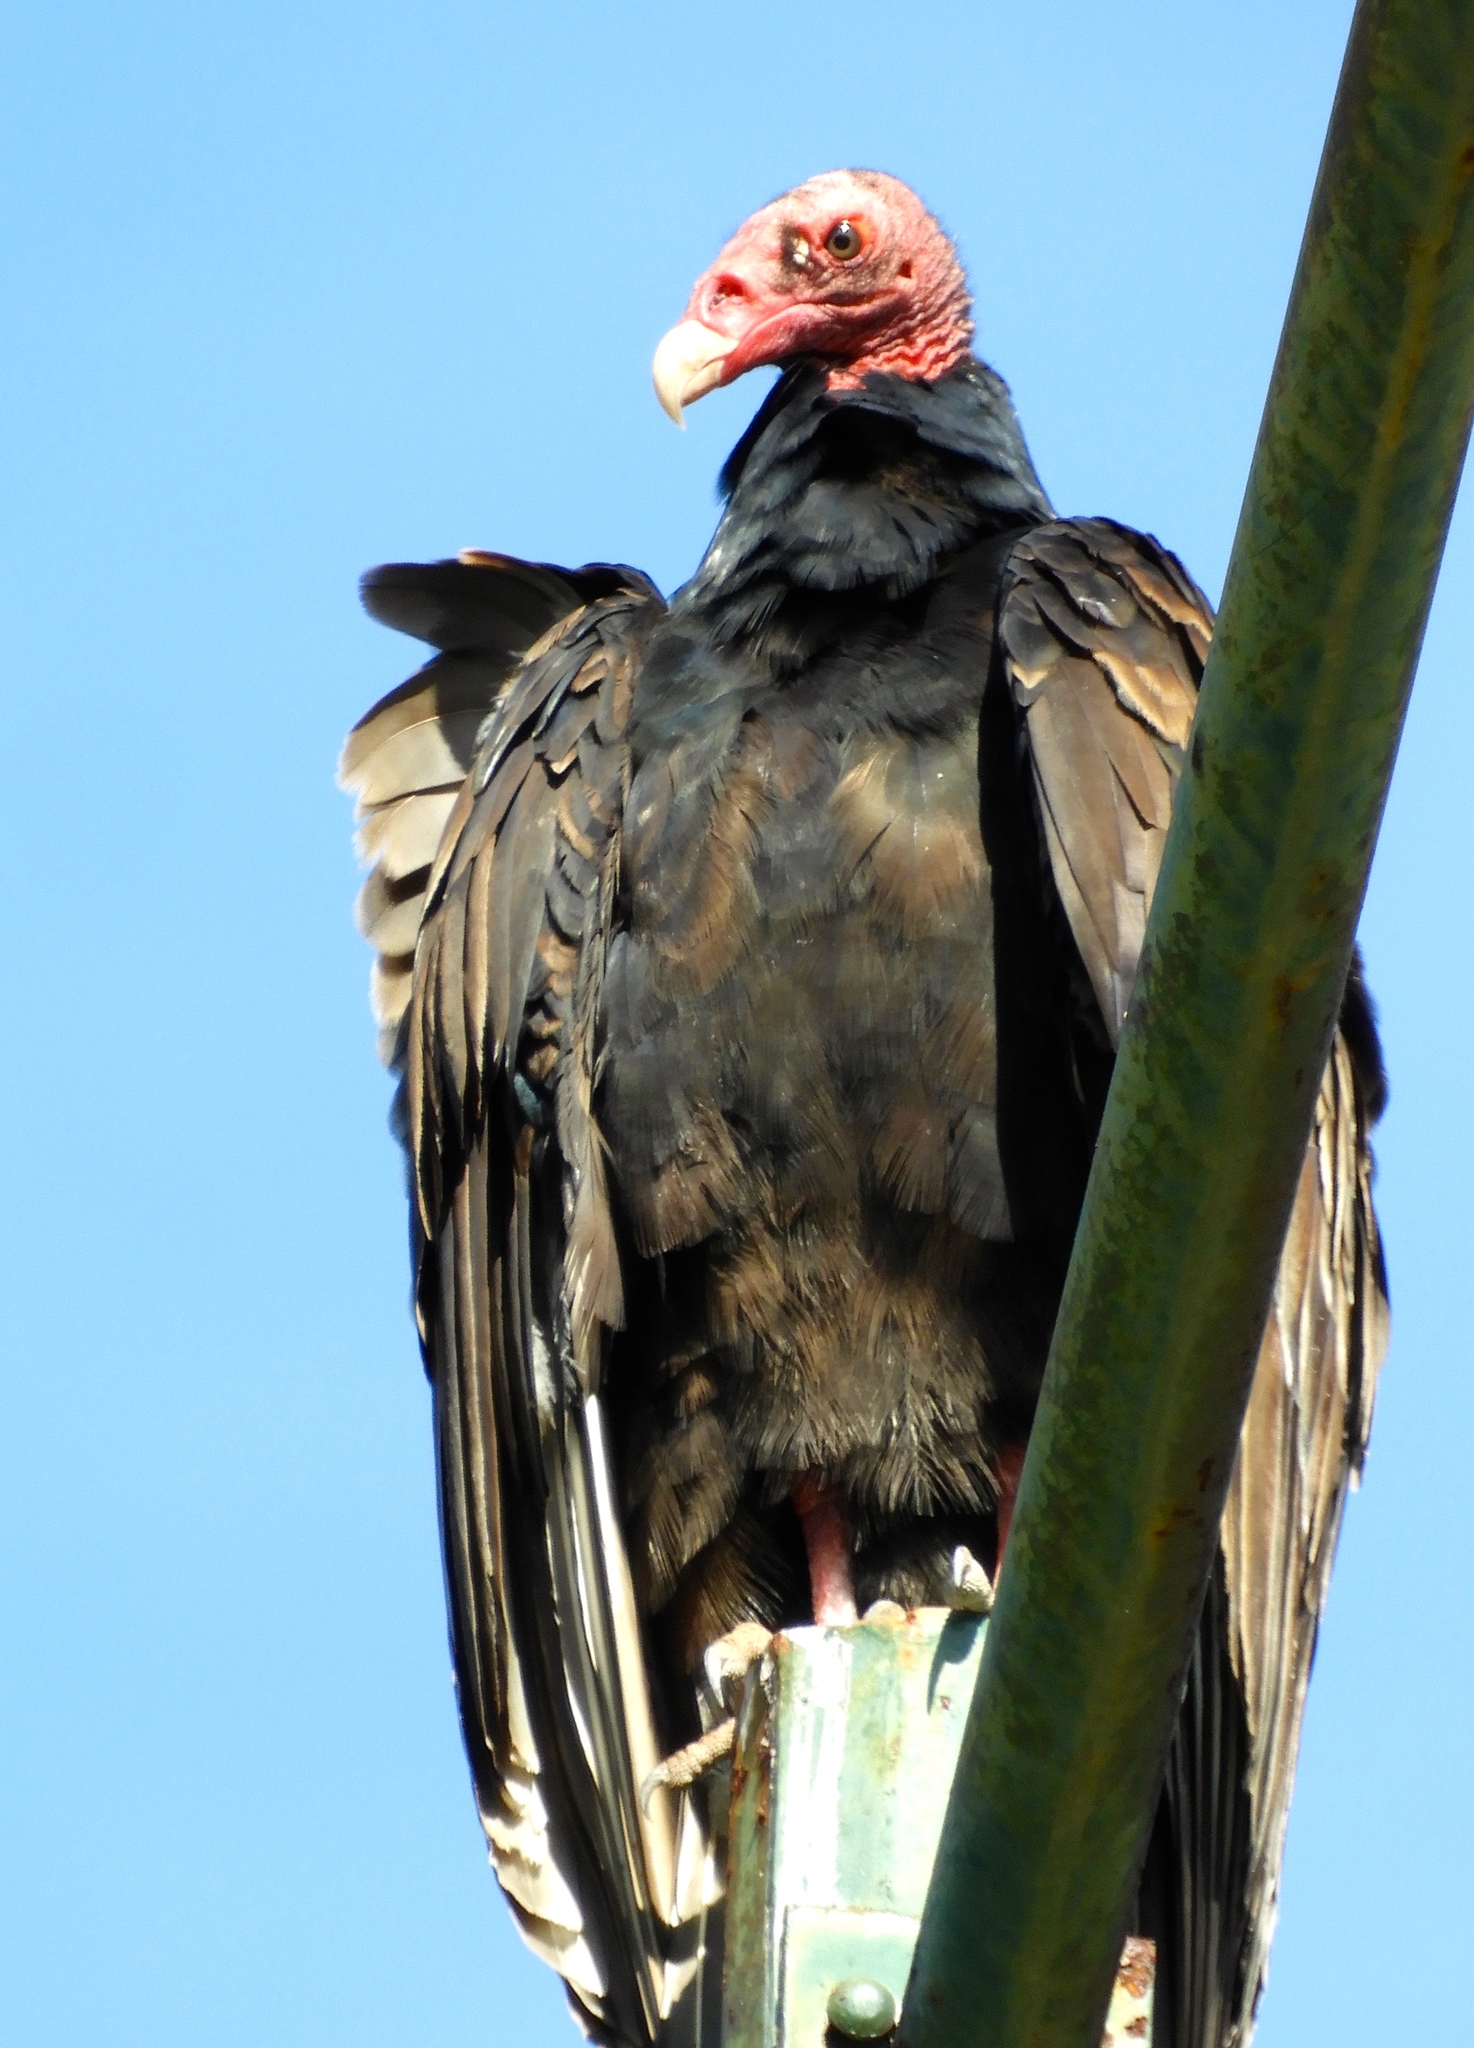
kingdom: Animalia
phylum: Chordata
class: Aves
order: Accipitriformes
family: Cathartidae
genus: Cathartes
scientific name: Cathartes aura
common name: Turkey vulture
